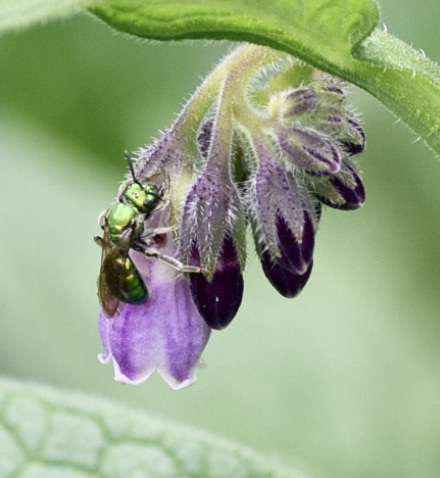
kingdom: Animalia
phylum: Arthropoda
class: Insecta
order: Hymenoptera
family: Halictidae
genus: Augochlora
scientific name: Augochlora pura
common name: Pure green sweat bee
